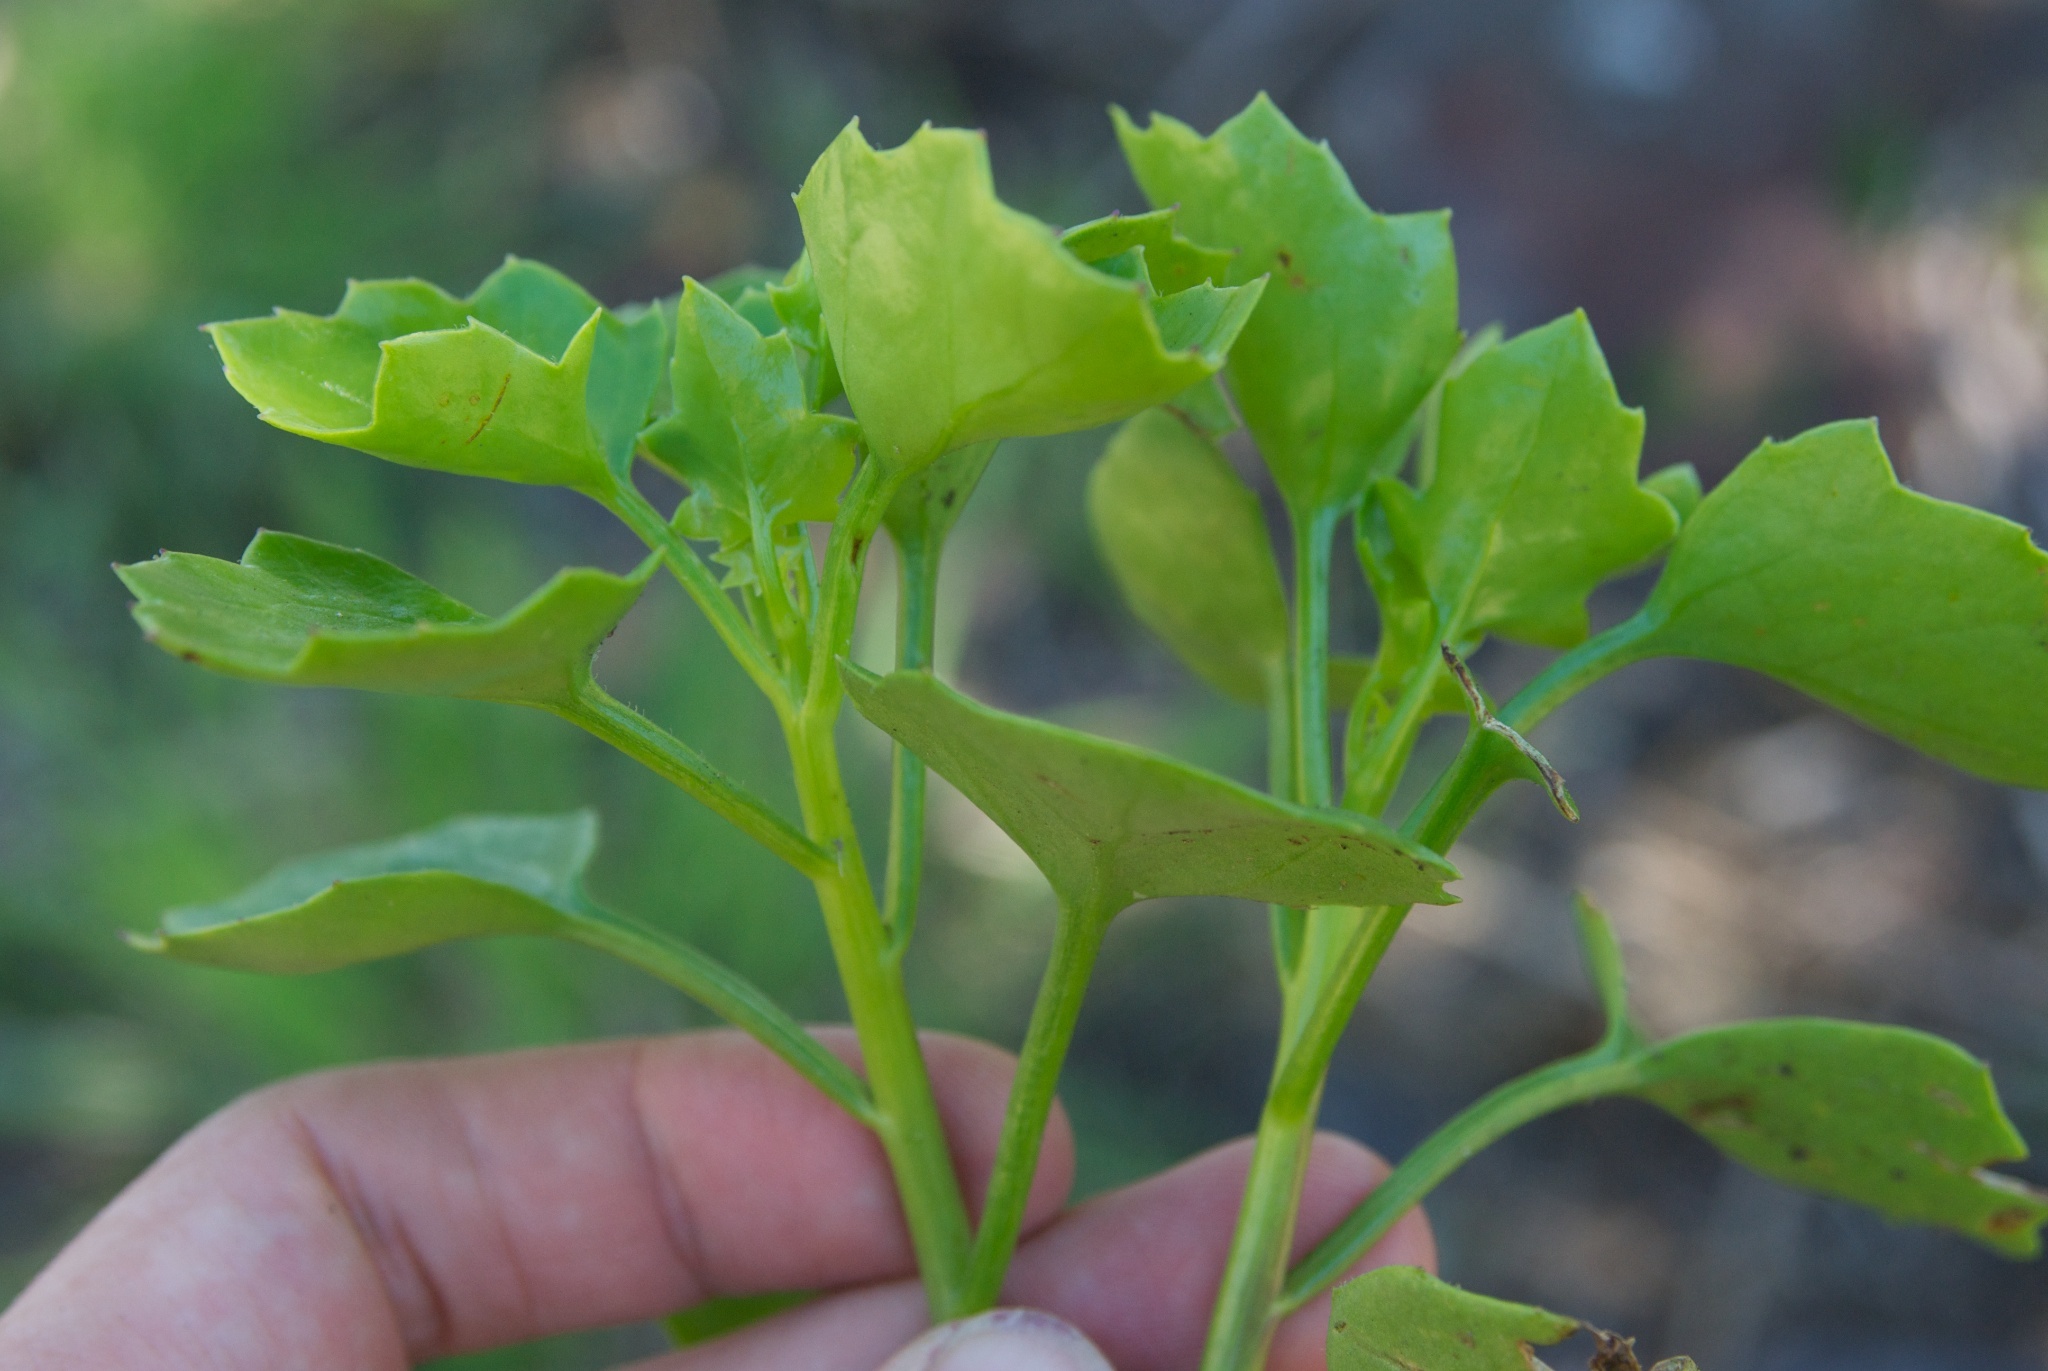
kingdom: Plantae
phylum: Tracheophyta
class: Magnoliopsida
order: Asterales
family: Asteraceae
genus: Senecio
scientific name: Senecio angulatus
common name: Climbing groundsel
